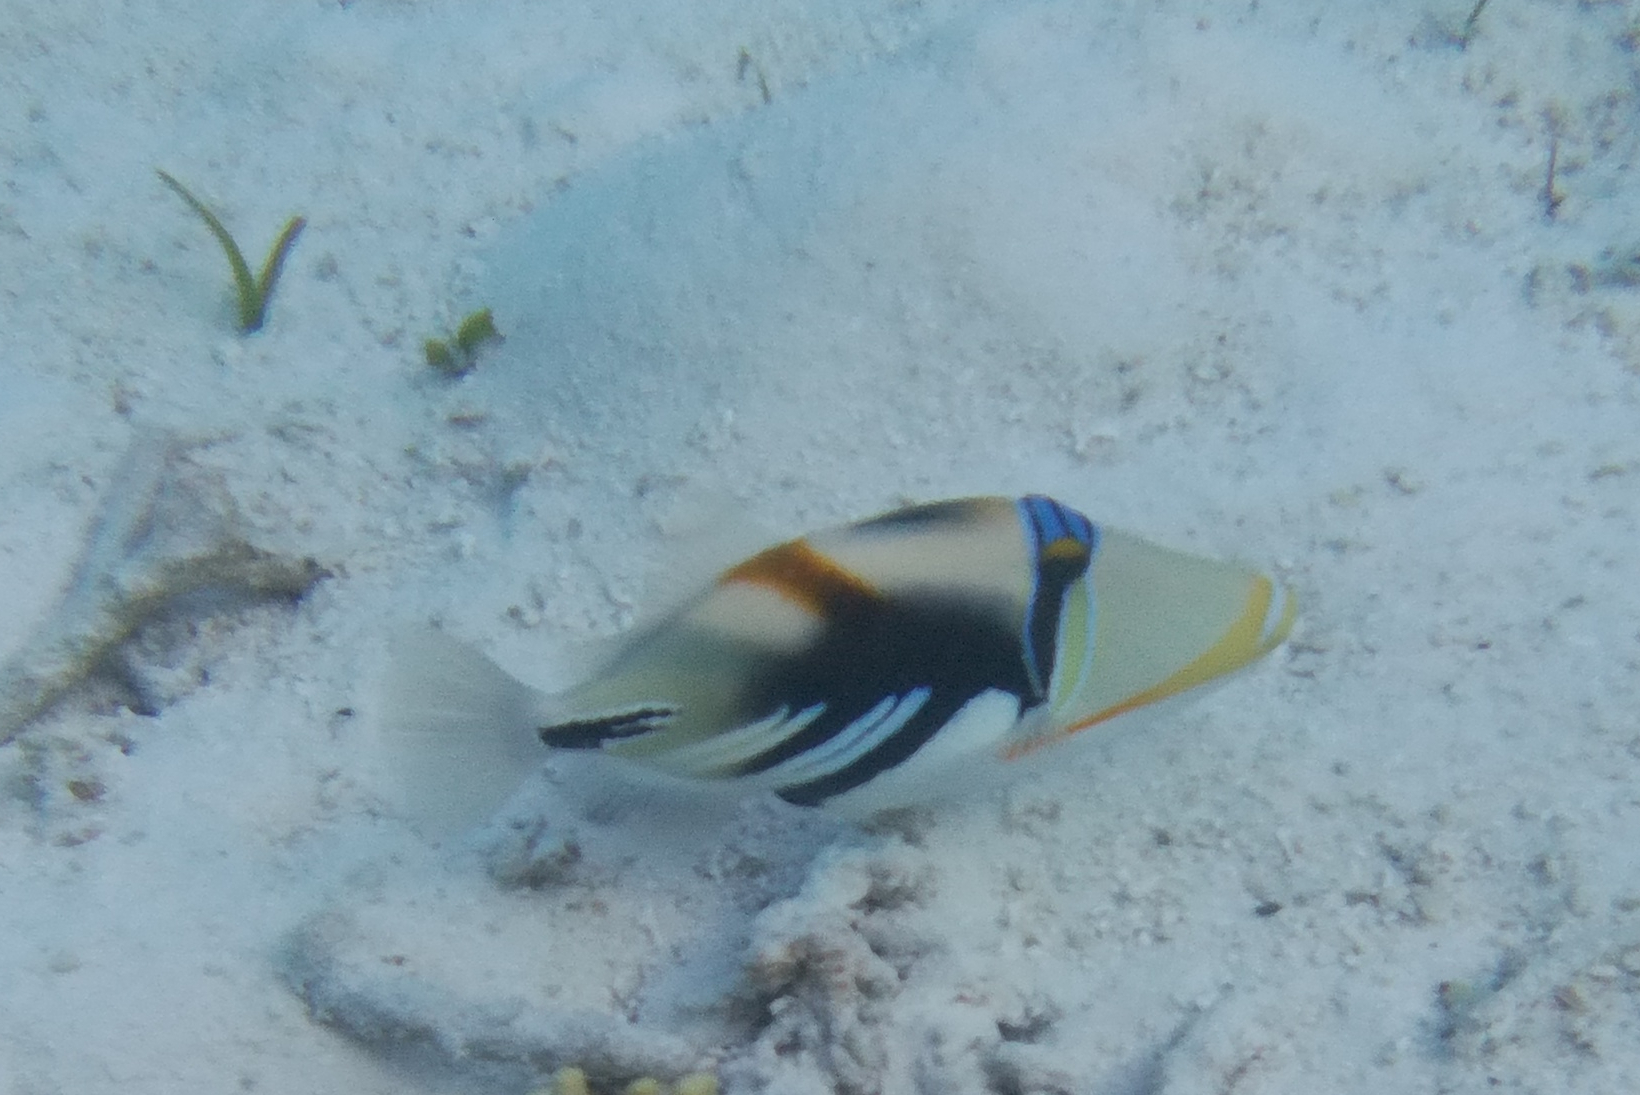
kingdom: Animalia
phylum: Chordata
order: Tetraodontiformes
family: Balistidae
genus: Rhinecanthus
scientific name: Rhinecanthus aculeatus
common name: White-banded triggerfish
